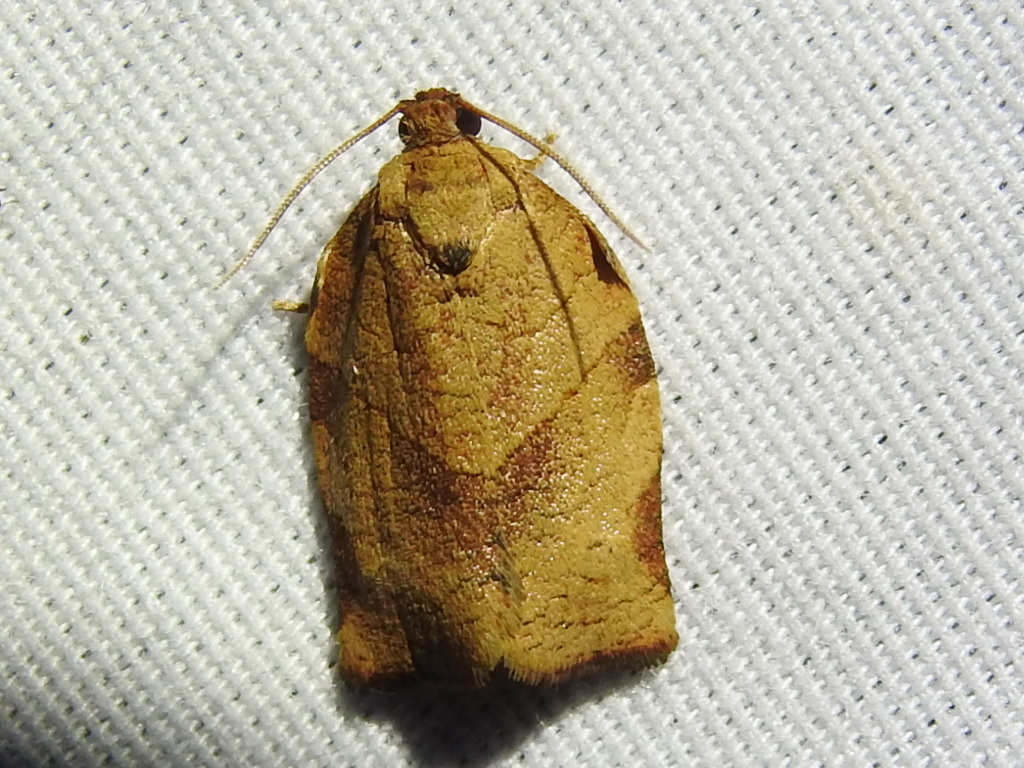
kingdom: Animalia
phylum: Arthropoda
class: Insecta
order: Lepidoptera
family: Tortricidae
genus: Choristoneura
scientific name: Choristoneura rosaceana
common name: Oblique-banded leafroller moth
